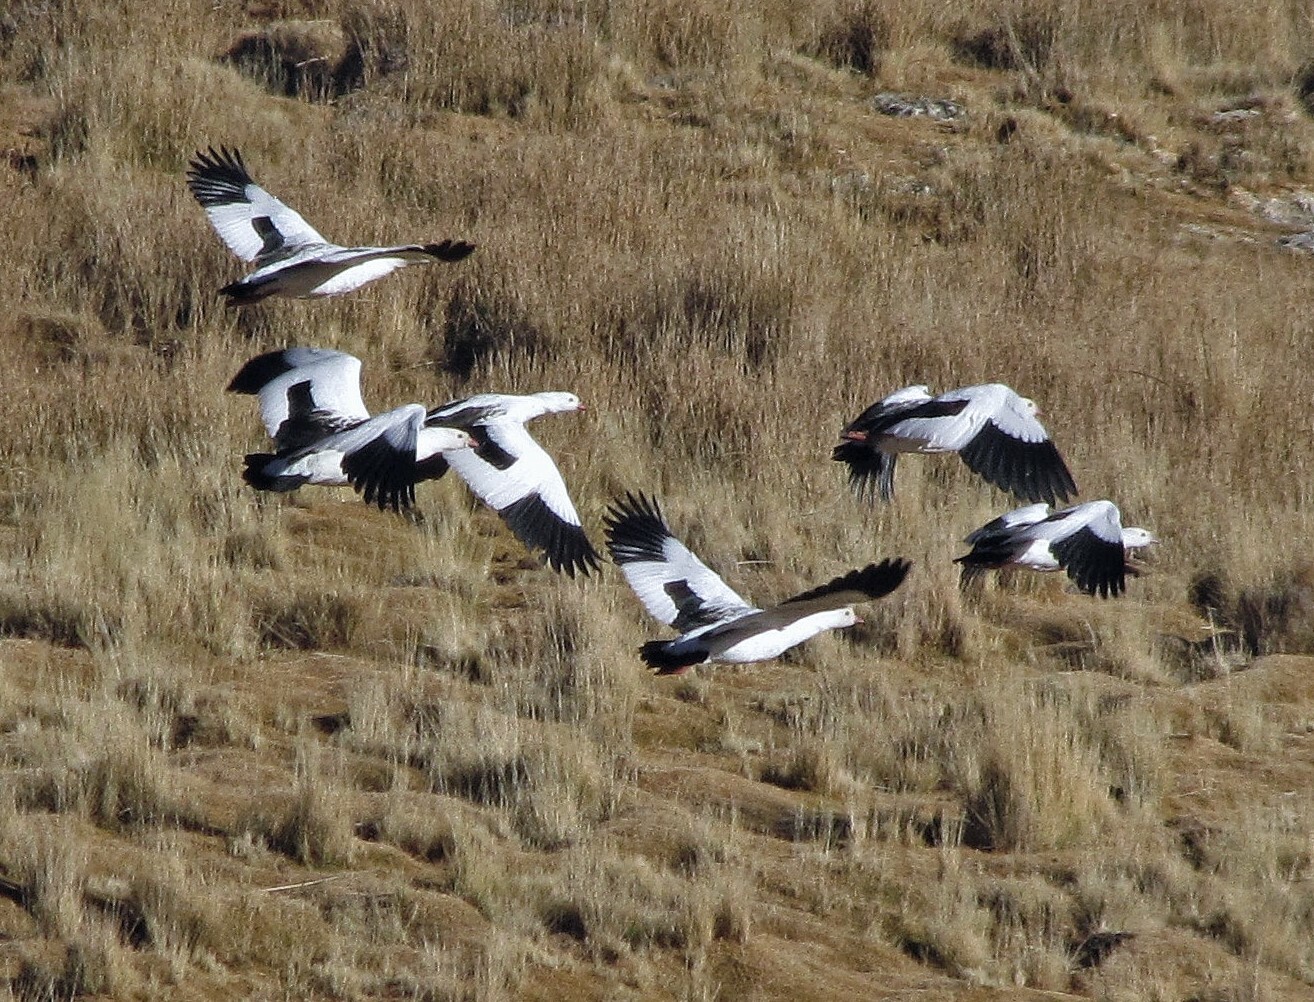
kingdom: Animalia
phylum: Chordata
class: Aves
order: Anseriformes
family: Anatidae
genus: Chloephaga
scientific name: Chloephaga melanoptera
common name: Andean goose
